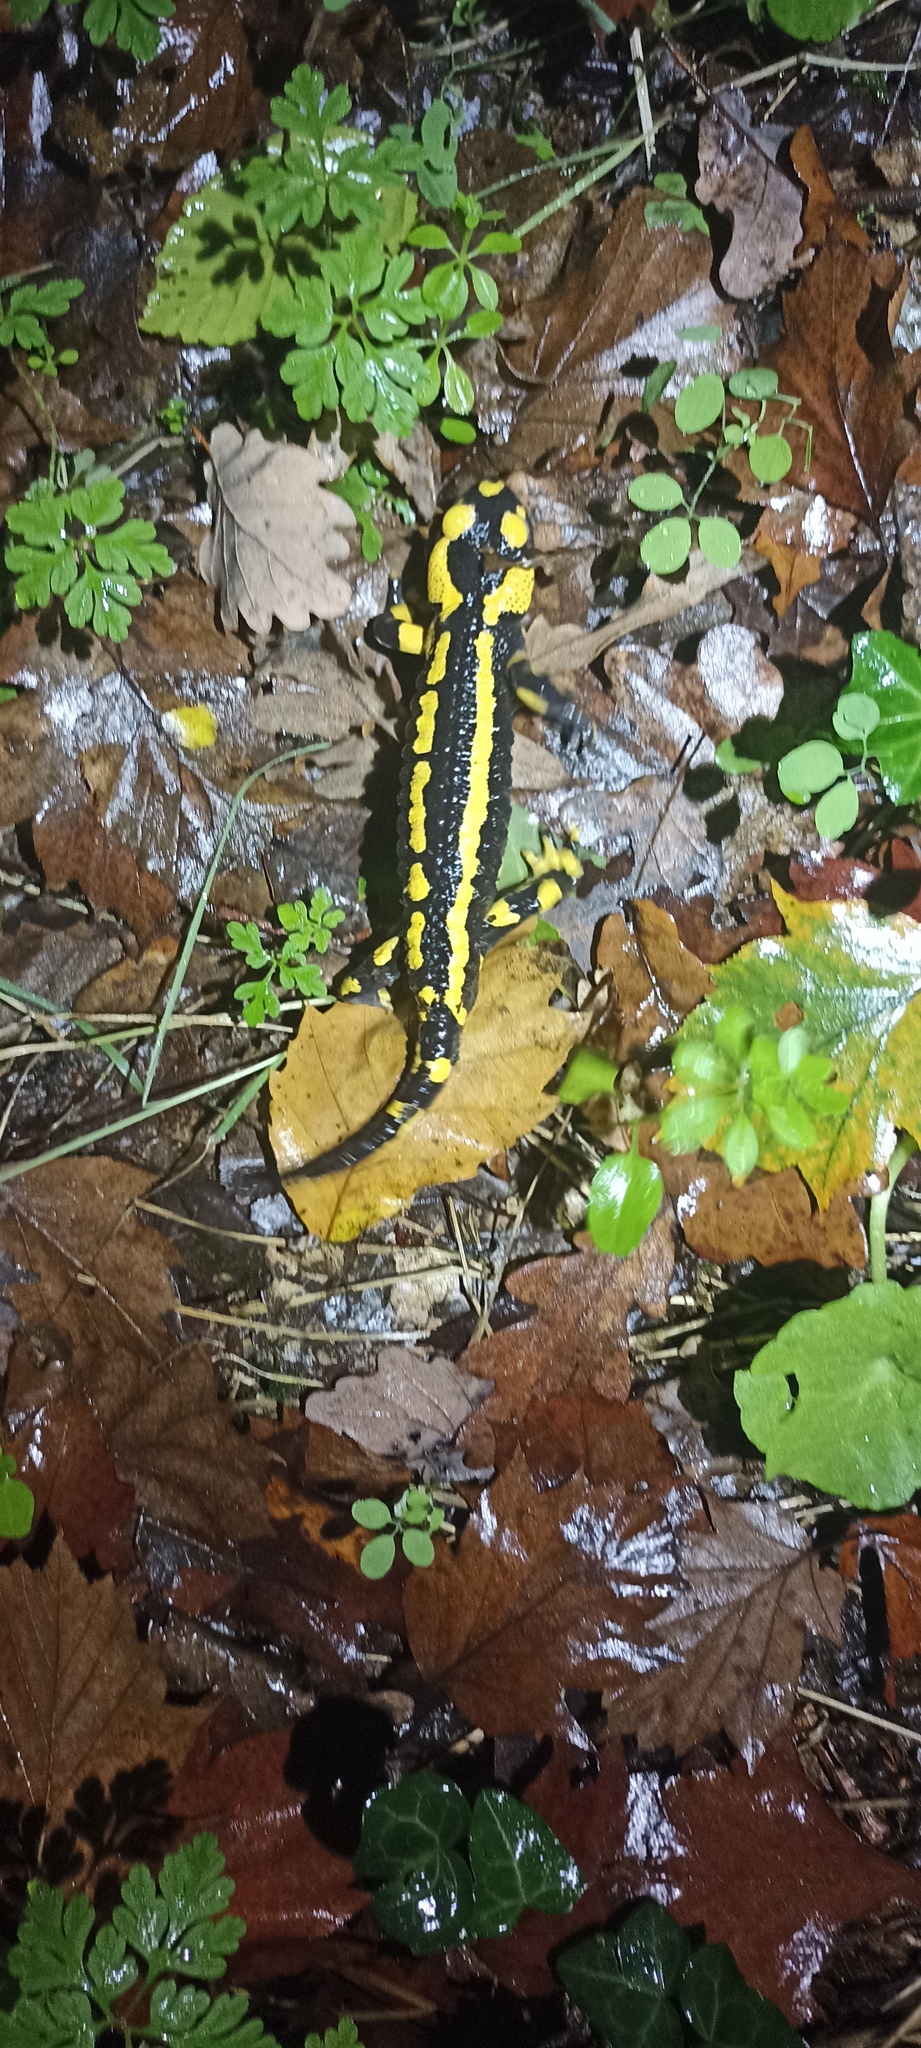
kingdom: Animalia
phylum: Chordata
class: Amphibia
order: Caudata
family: Salamandridae
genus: Salamandra
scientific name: Salamandra salamandra
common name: Fire salamander
